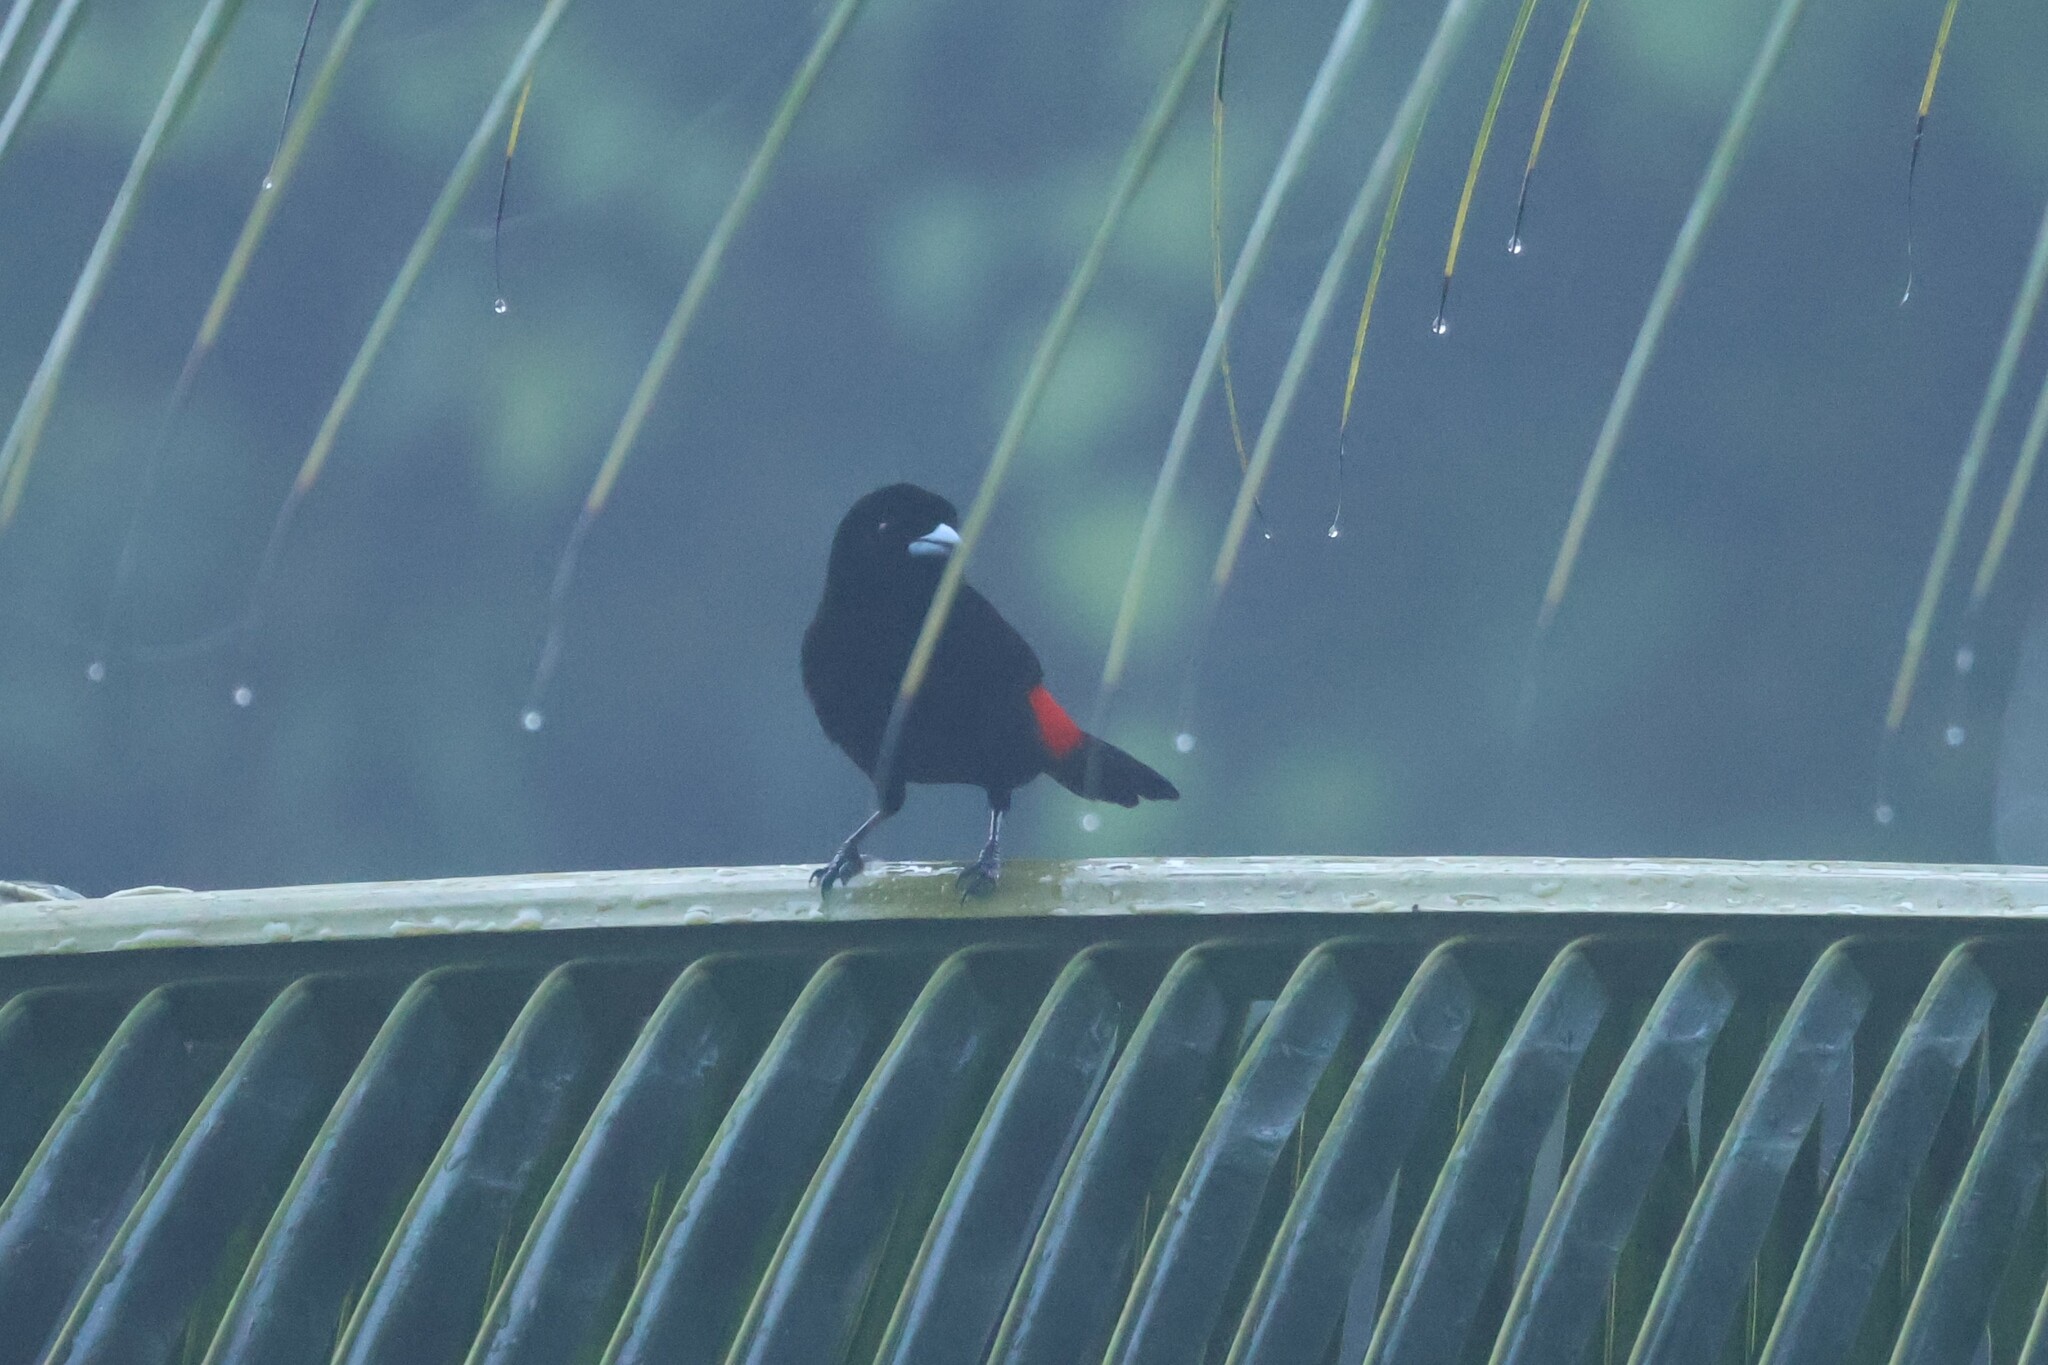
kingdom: Animalia
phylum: Chordata
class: Aves
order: Passeriformes
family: Thraupidae
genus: Ramphocelus
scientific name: Ramphocelus passerinii
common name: Passerini's tanager
